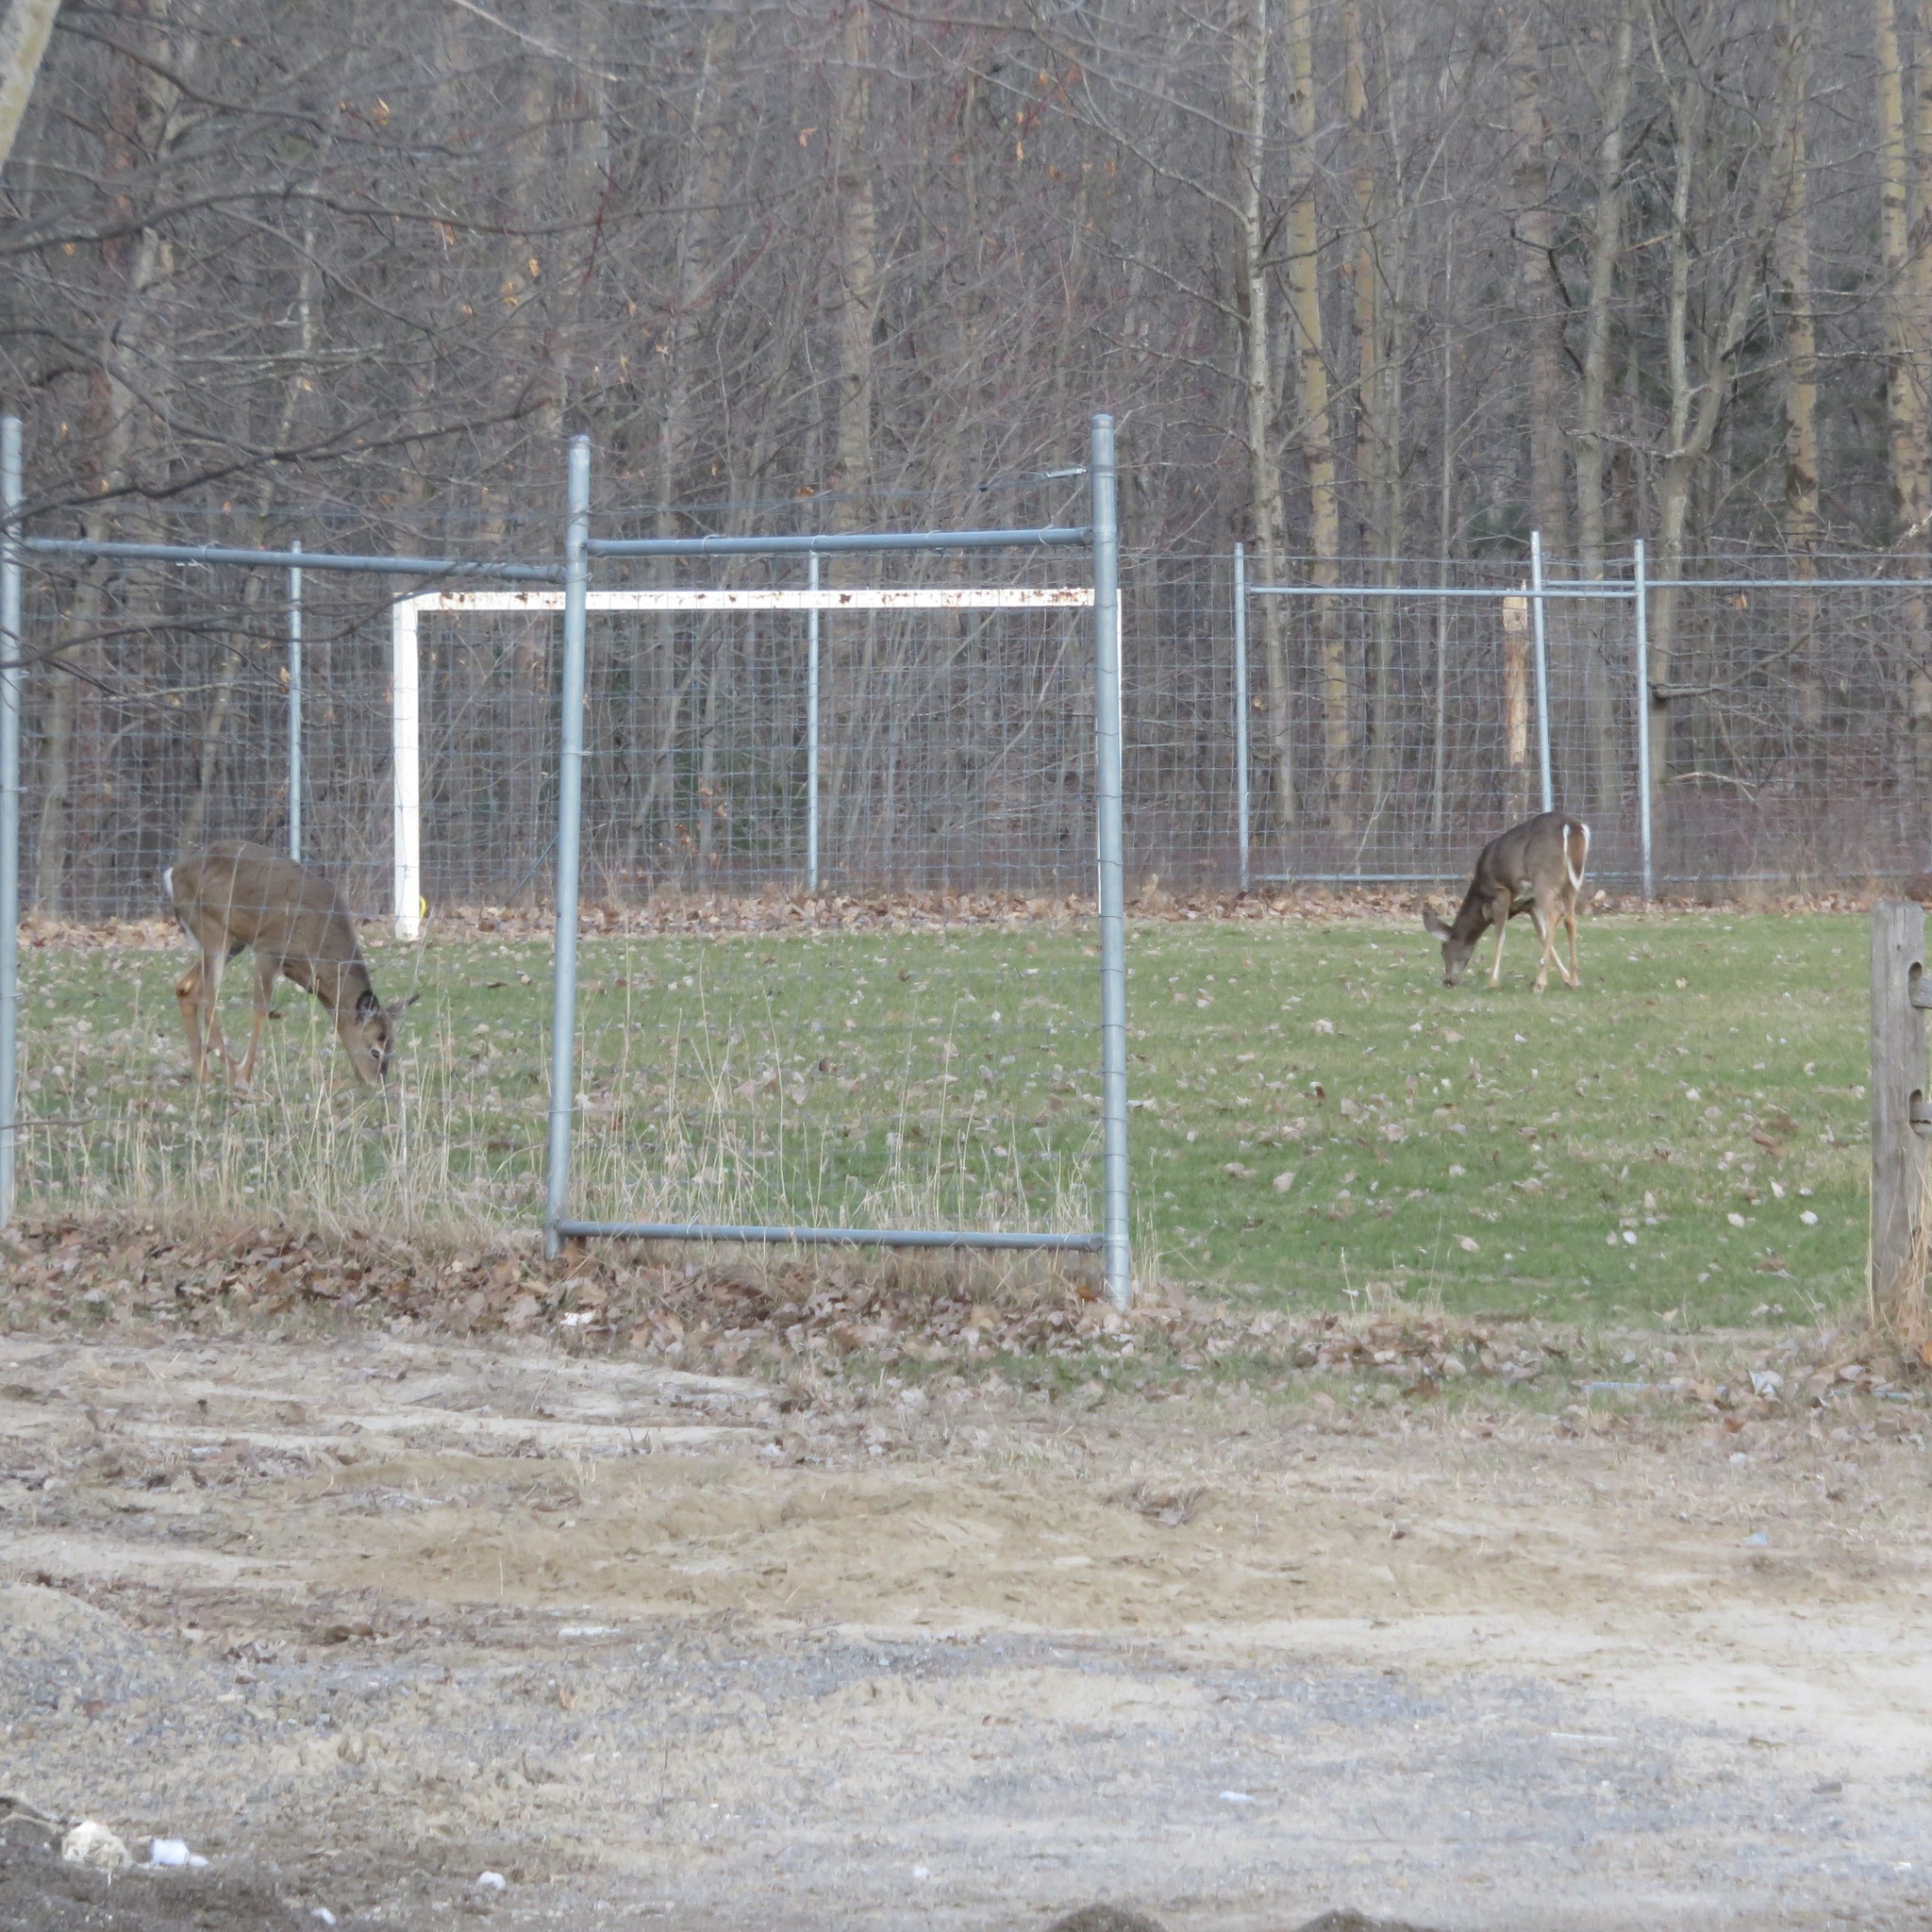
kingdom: Animalia
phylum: Chordata
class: Mammalia
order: Artiodactyla
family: Cervidae
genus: Odocoileus
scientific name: Odocoileus virginianus
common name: White-tailed deer
